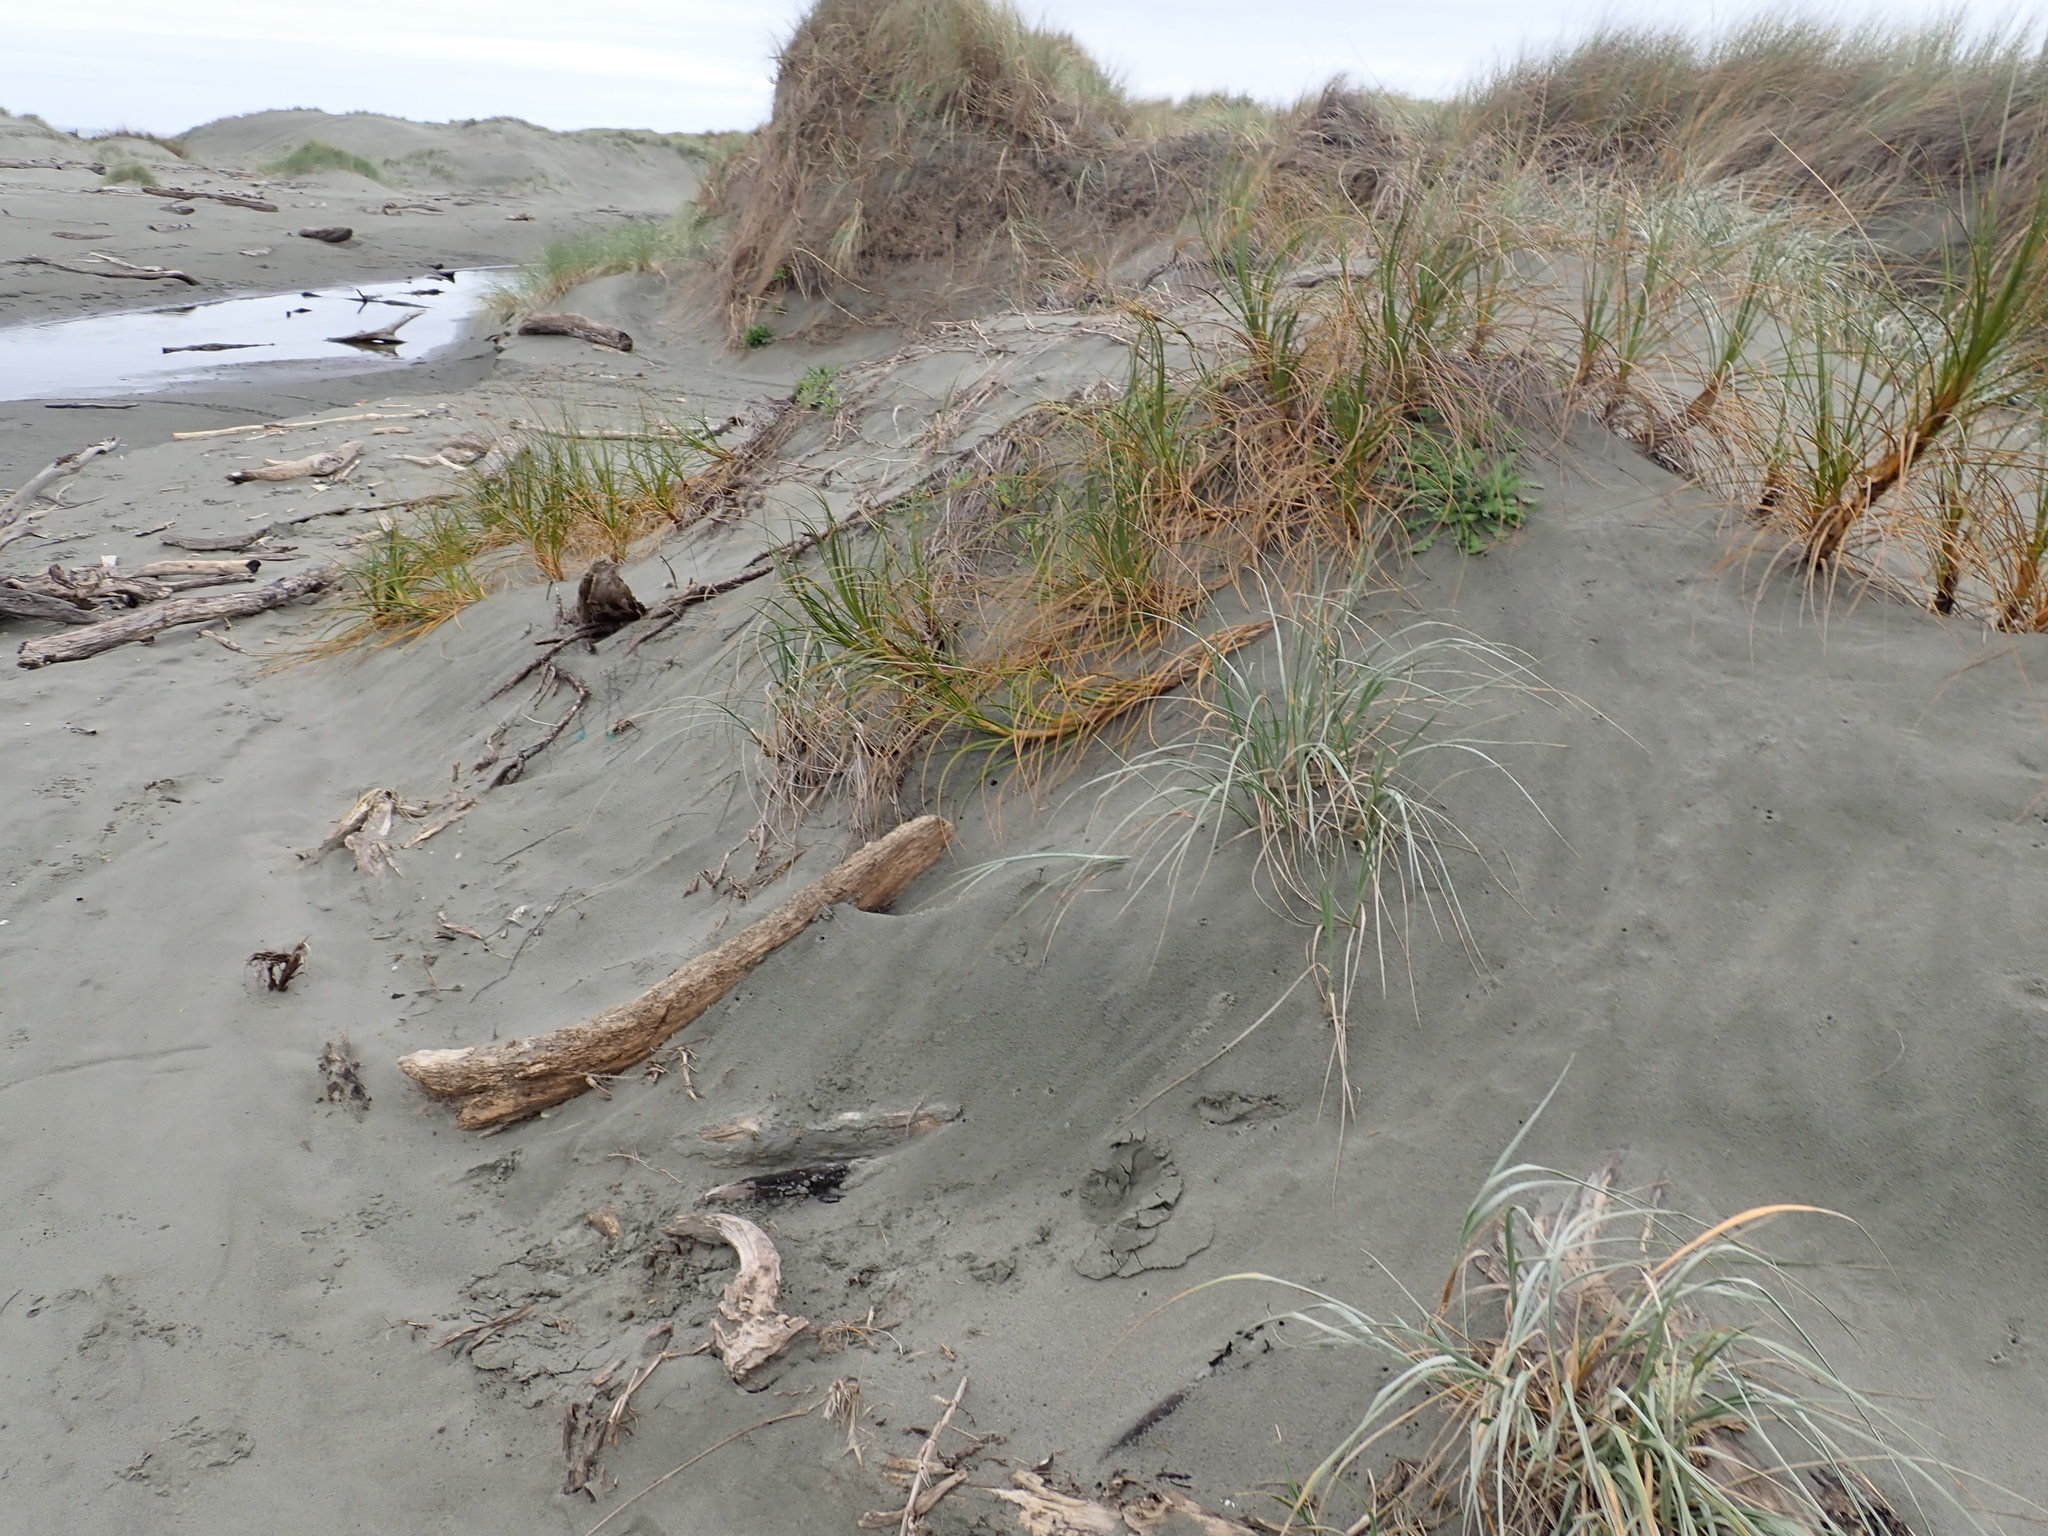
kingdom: Plantae
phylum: Tracheophyta
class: Liliopsida
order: Poales
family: Cyperaceae
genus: Ficinia
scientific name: Ficinia spiralis
